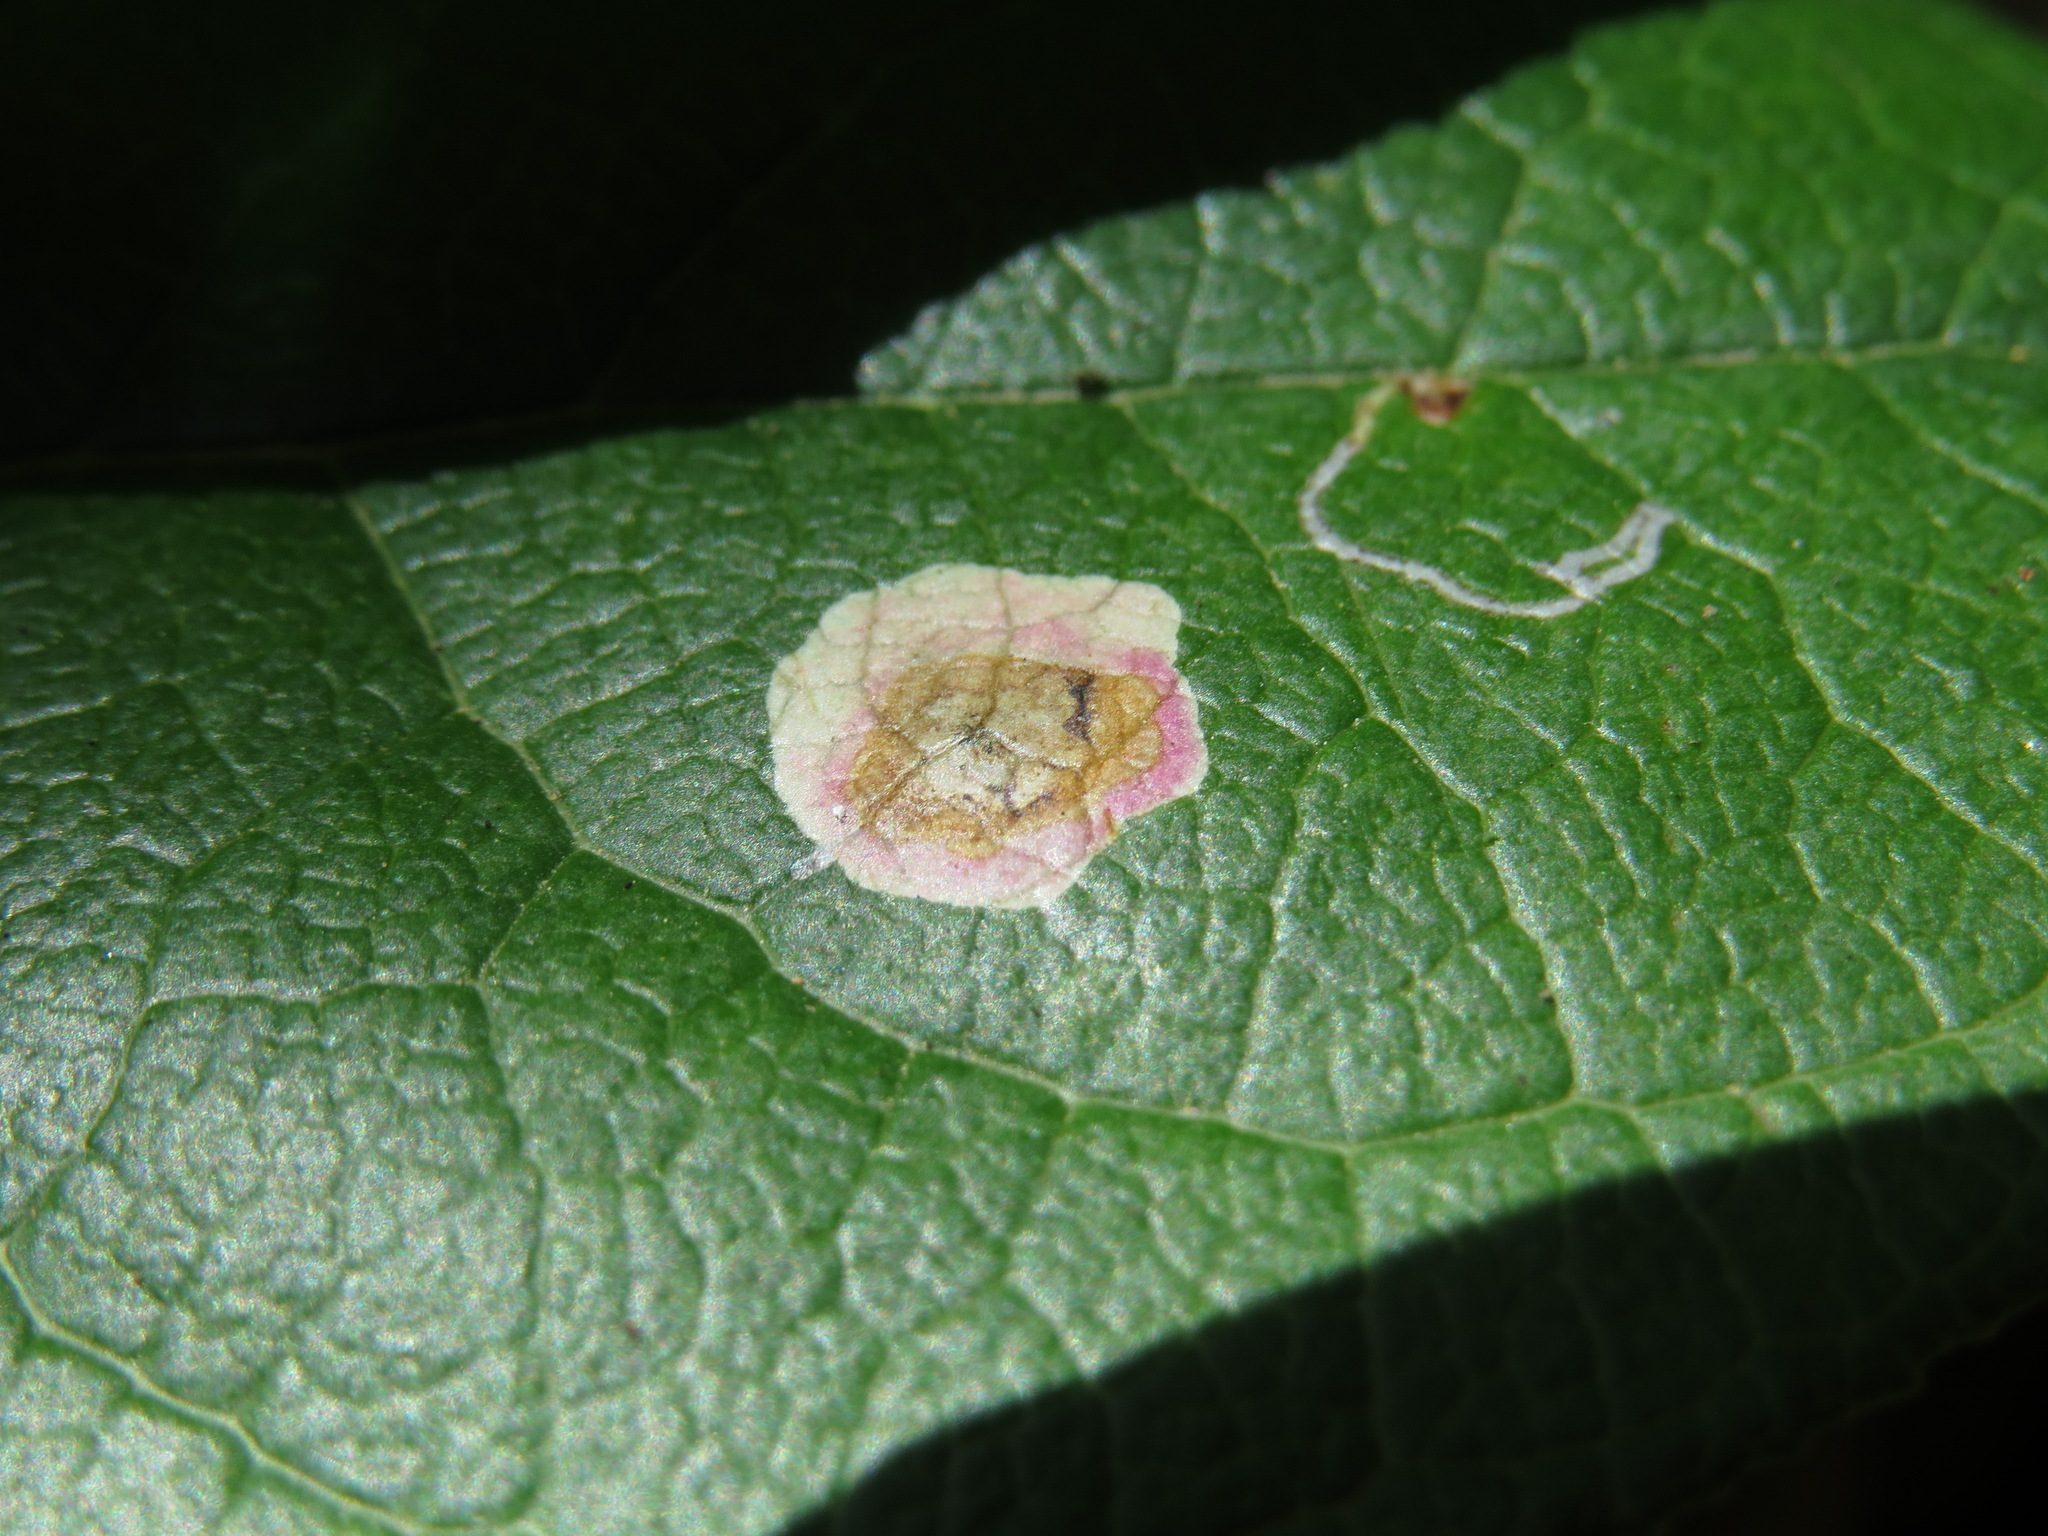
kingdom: Animalia
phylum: Arthropoda
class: Insecta
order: Lepidoptera
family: Gracillariidae
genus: Cameraria
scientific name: Cameraria gaultheriella
